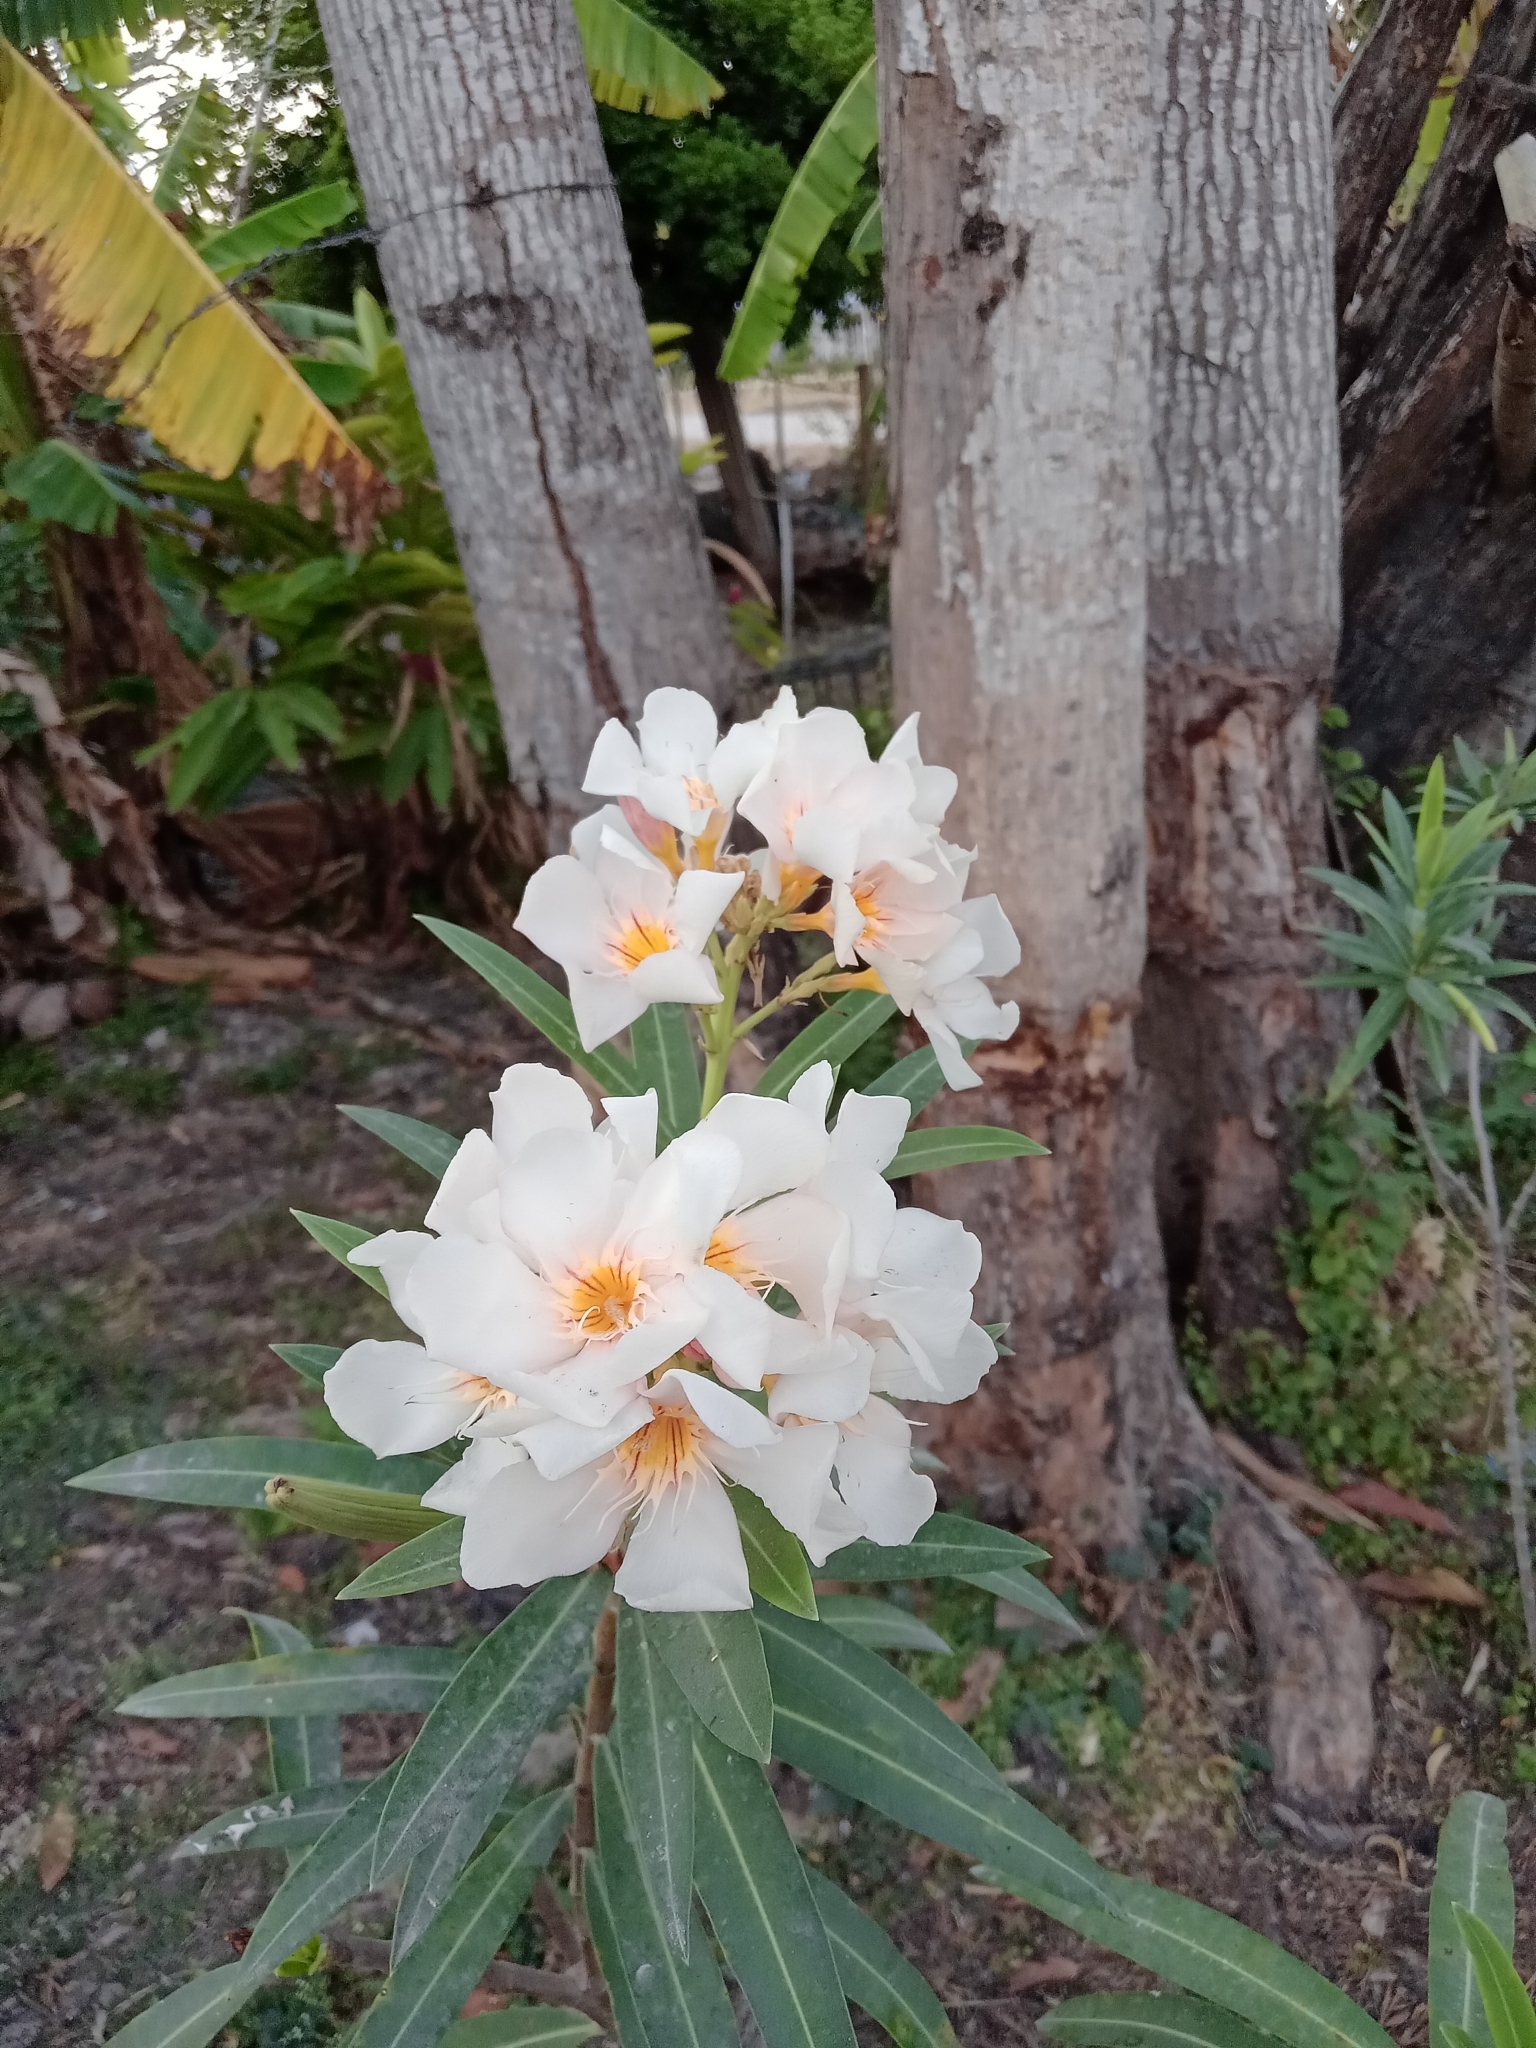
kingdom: Plantae
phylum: Tracheophyta
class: Magnoliopsida
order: Gentianales
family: Apocynaceae
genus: Nerium
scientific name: Nerium oleander
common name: Oleander
